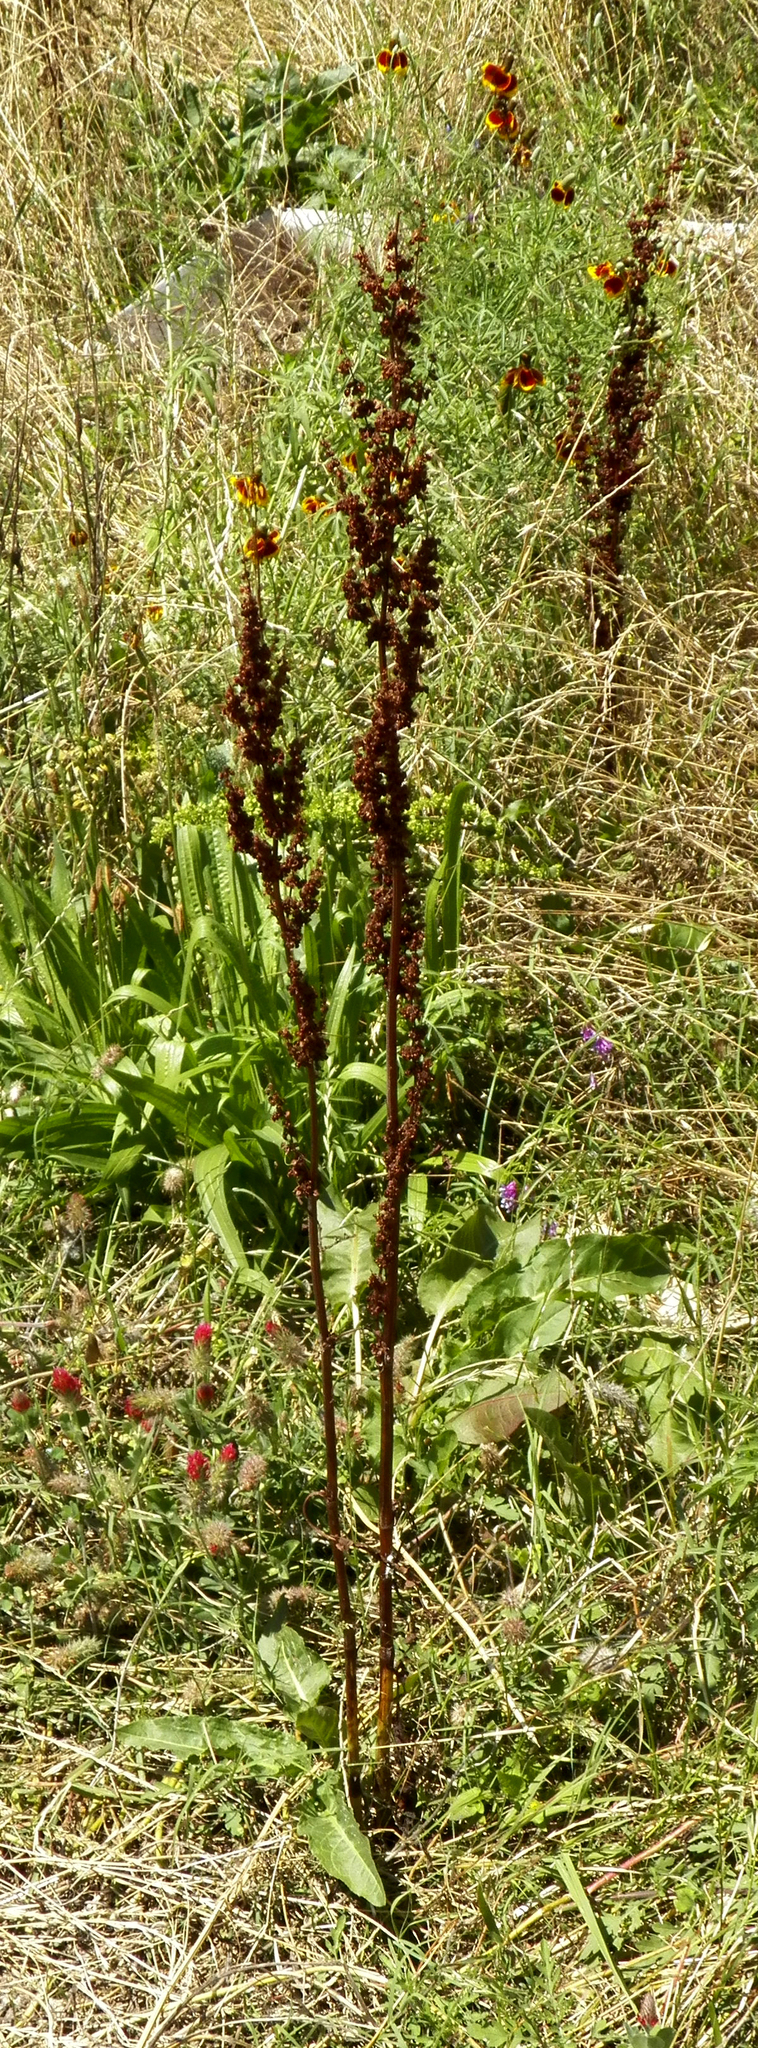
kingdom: Plantae
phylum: Tracheophyta
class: Magnoliopsida
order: Caryophyllales
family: Polygonaceae
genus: Rumex
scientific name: Rumex crispus
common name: Curled dock
